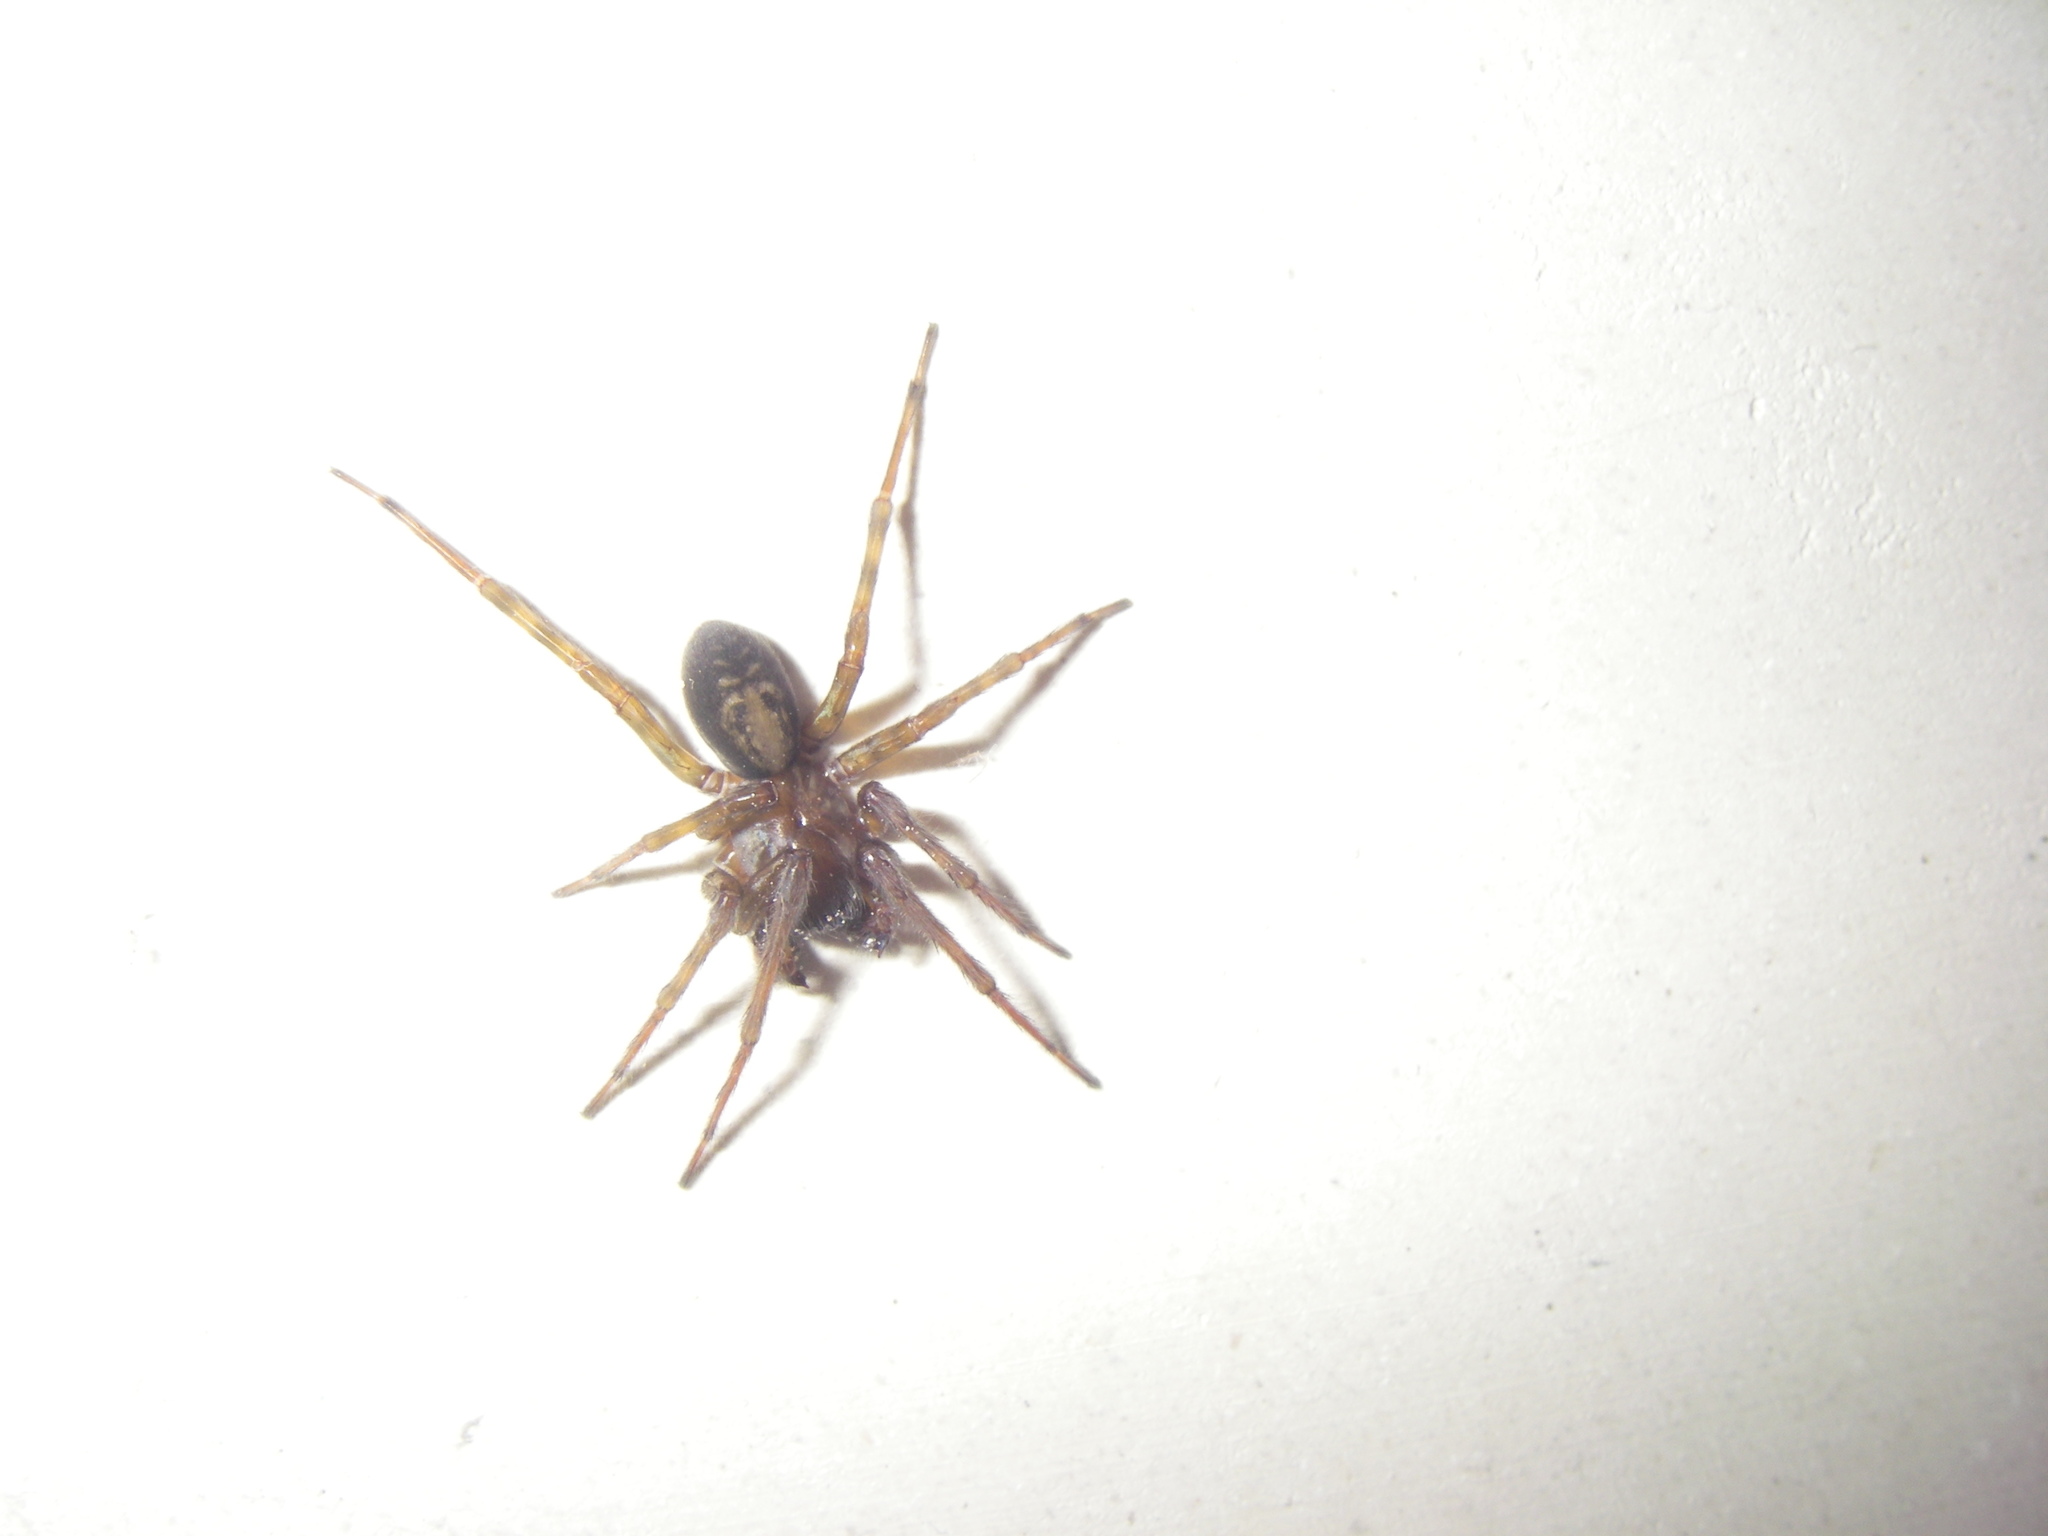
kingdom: Animalia
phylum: Arthropoda
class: Arachnida
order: Araneae
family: Amaurobiidae
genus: Amaurobius
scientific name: Amaurobius ferox
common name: Black laceweaver
